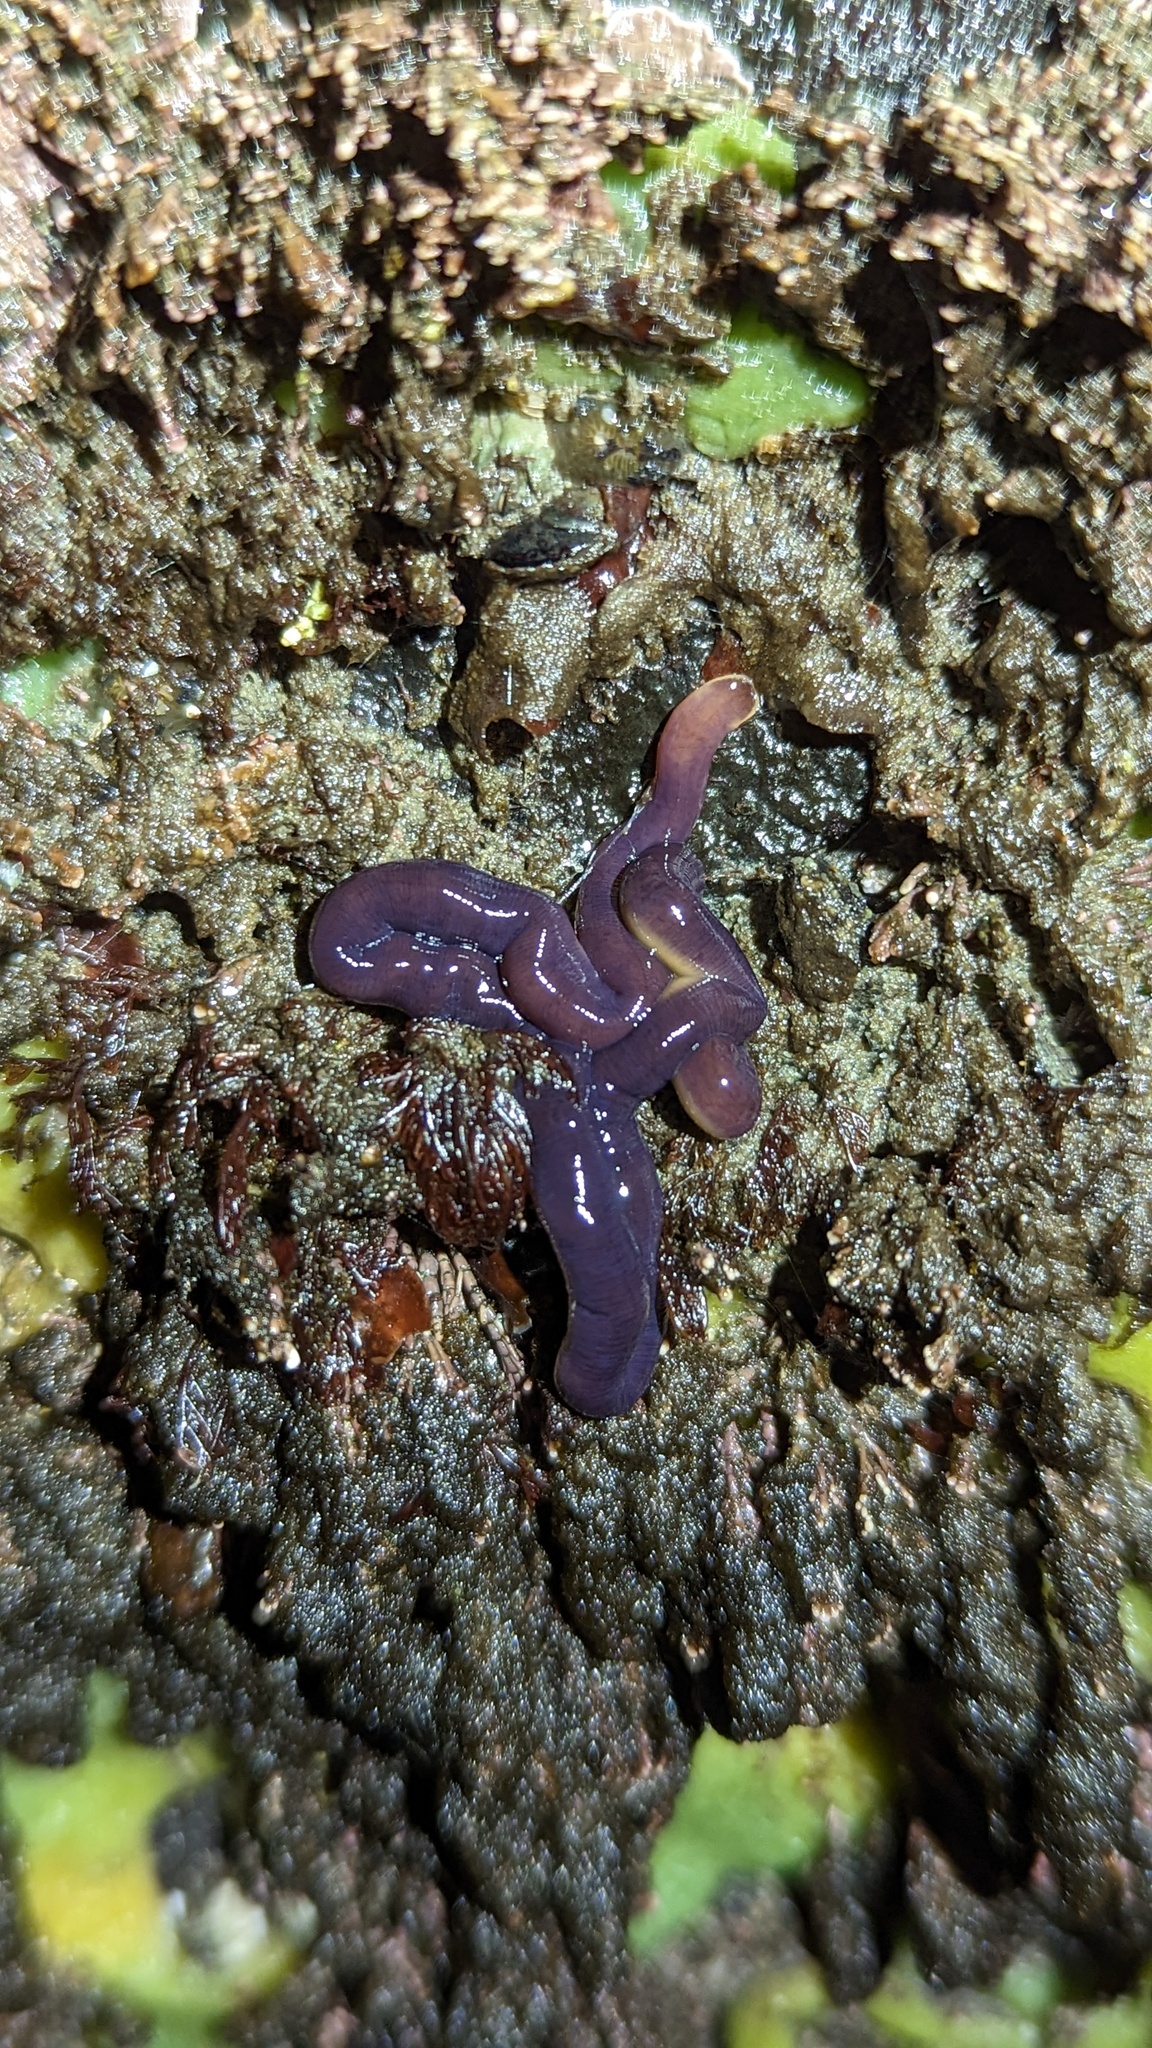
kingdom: Animalia
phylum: Nemertea
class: Hoplonemertea
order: Monostilifera
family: Neesiidae
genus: Paranemertes
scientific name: Paranemertes peregrina
